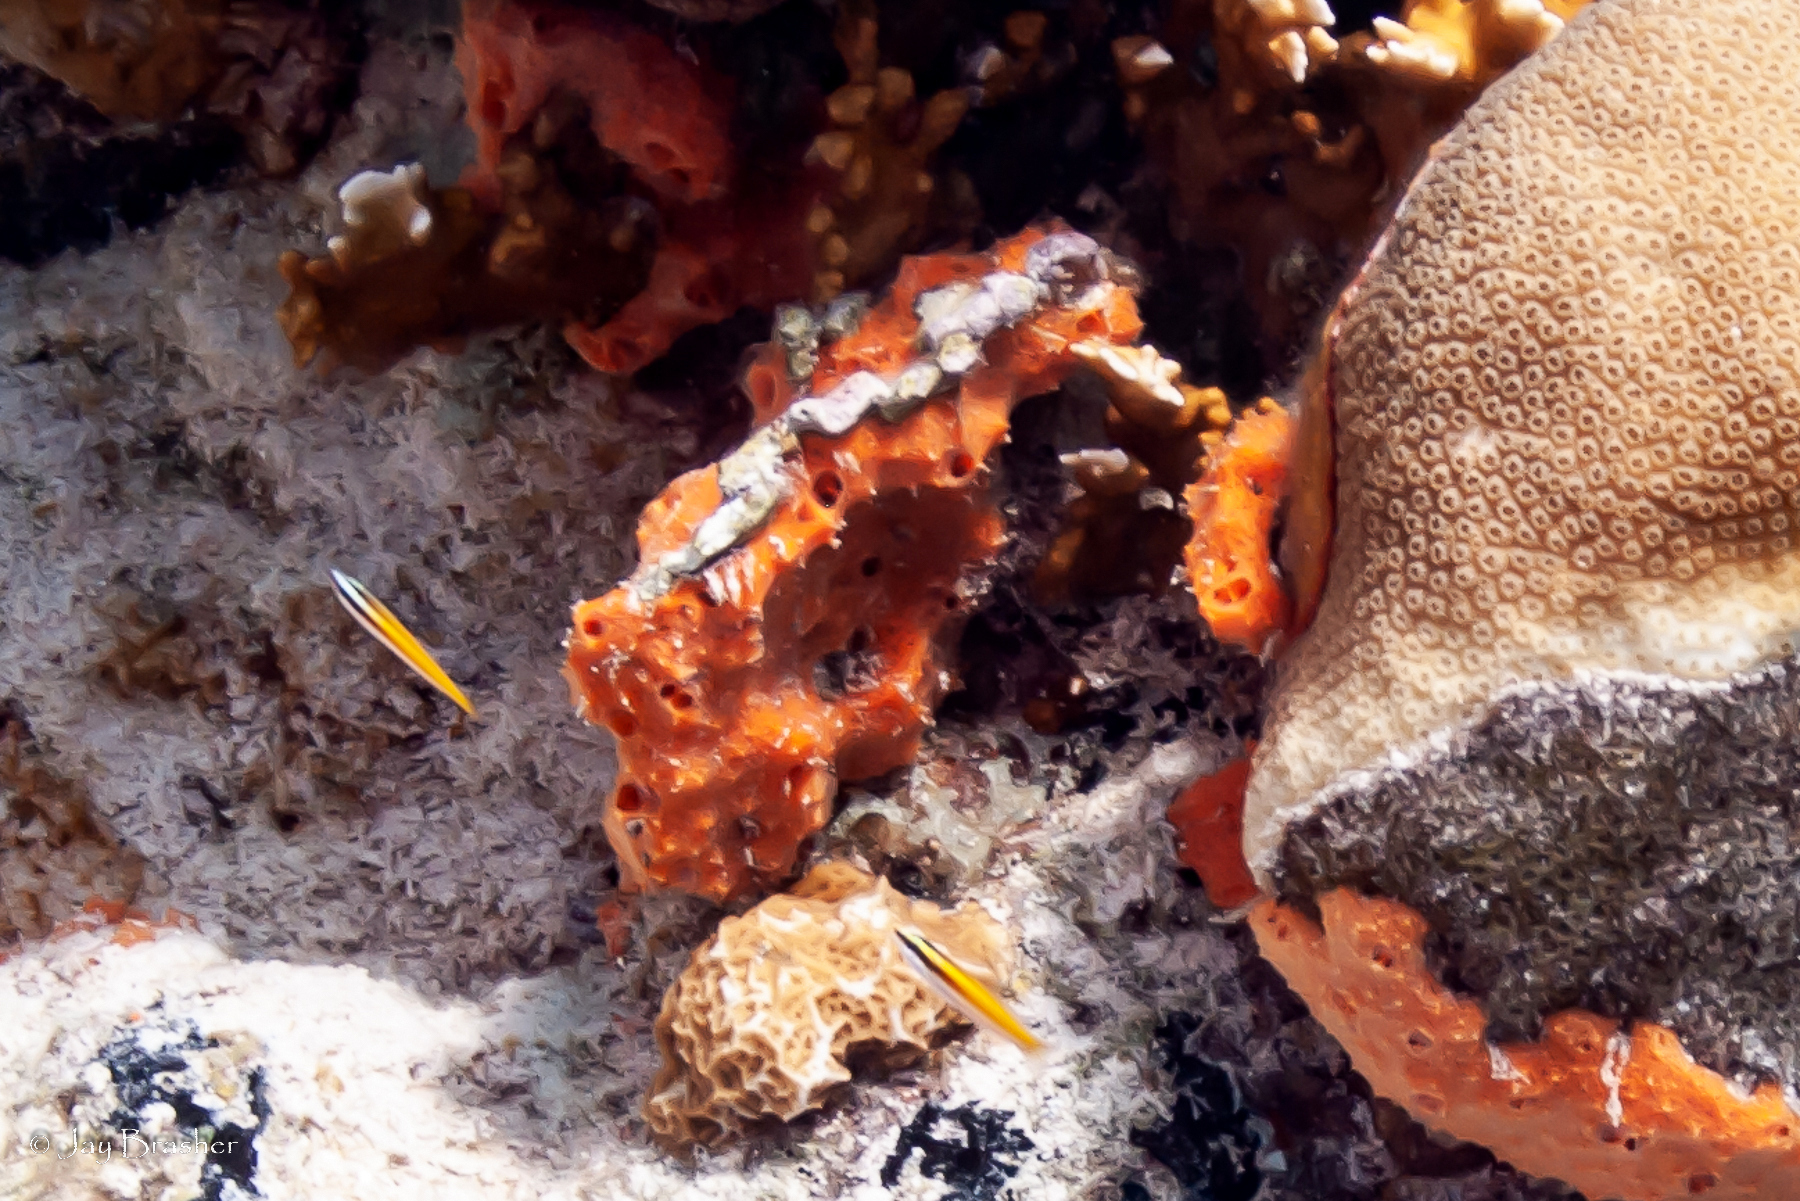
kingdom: Animalia
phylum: Porifera
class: Demospongiae
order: Scopalinida
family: Scopalinidae
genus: Scopalina
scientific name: Scopalina ruetzleri
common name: Orange lumpy encrusting sponge
